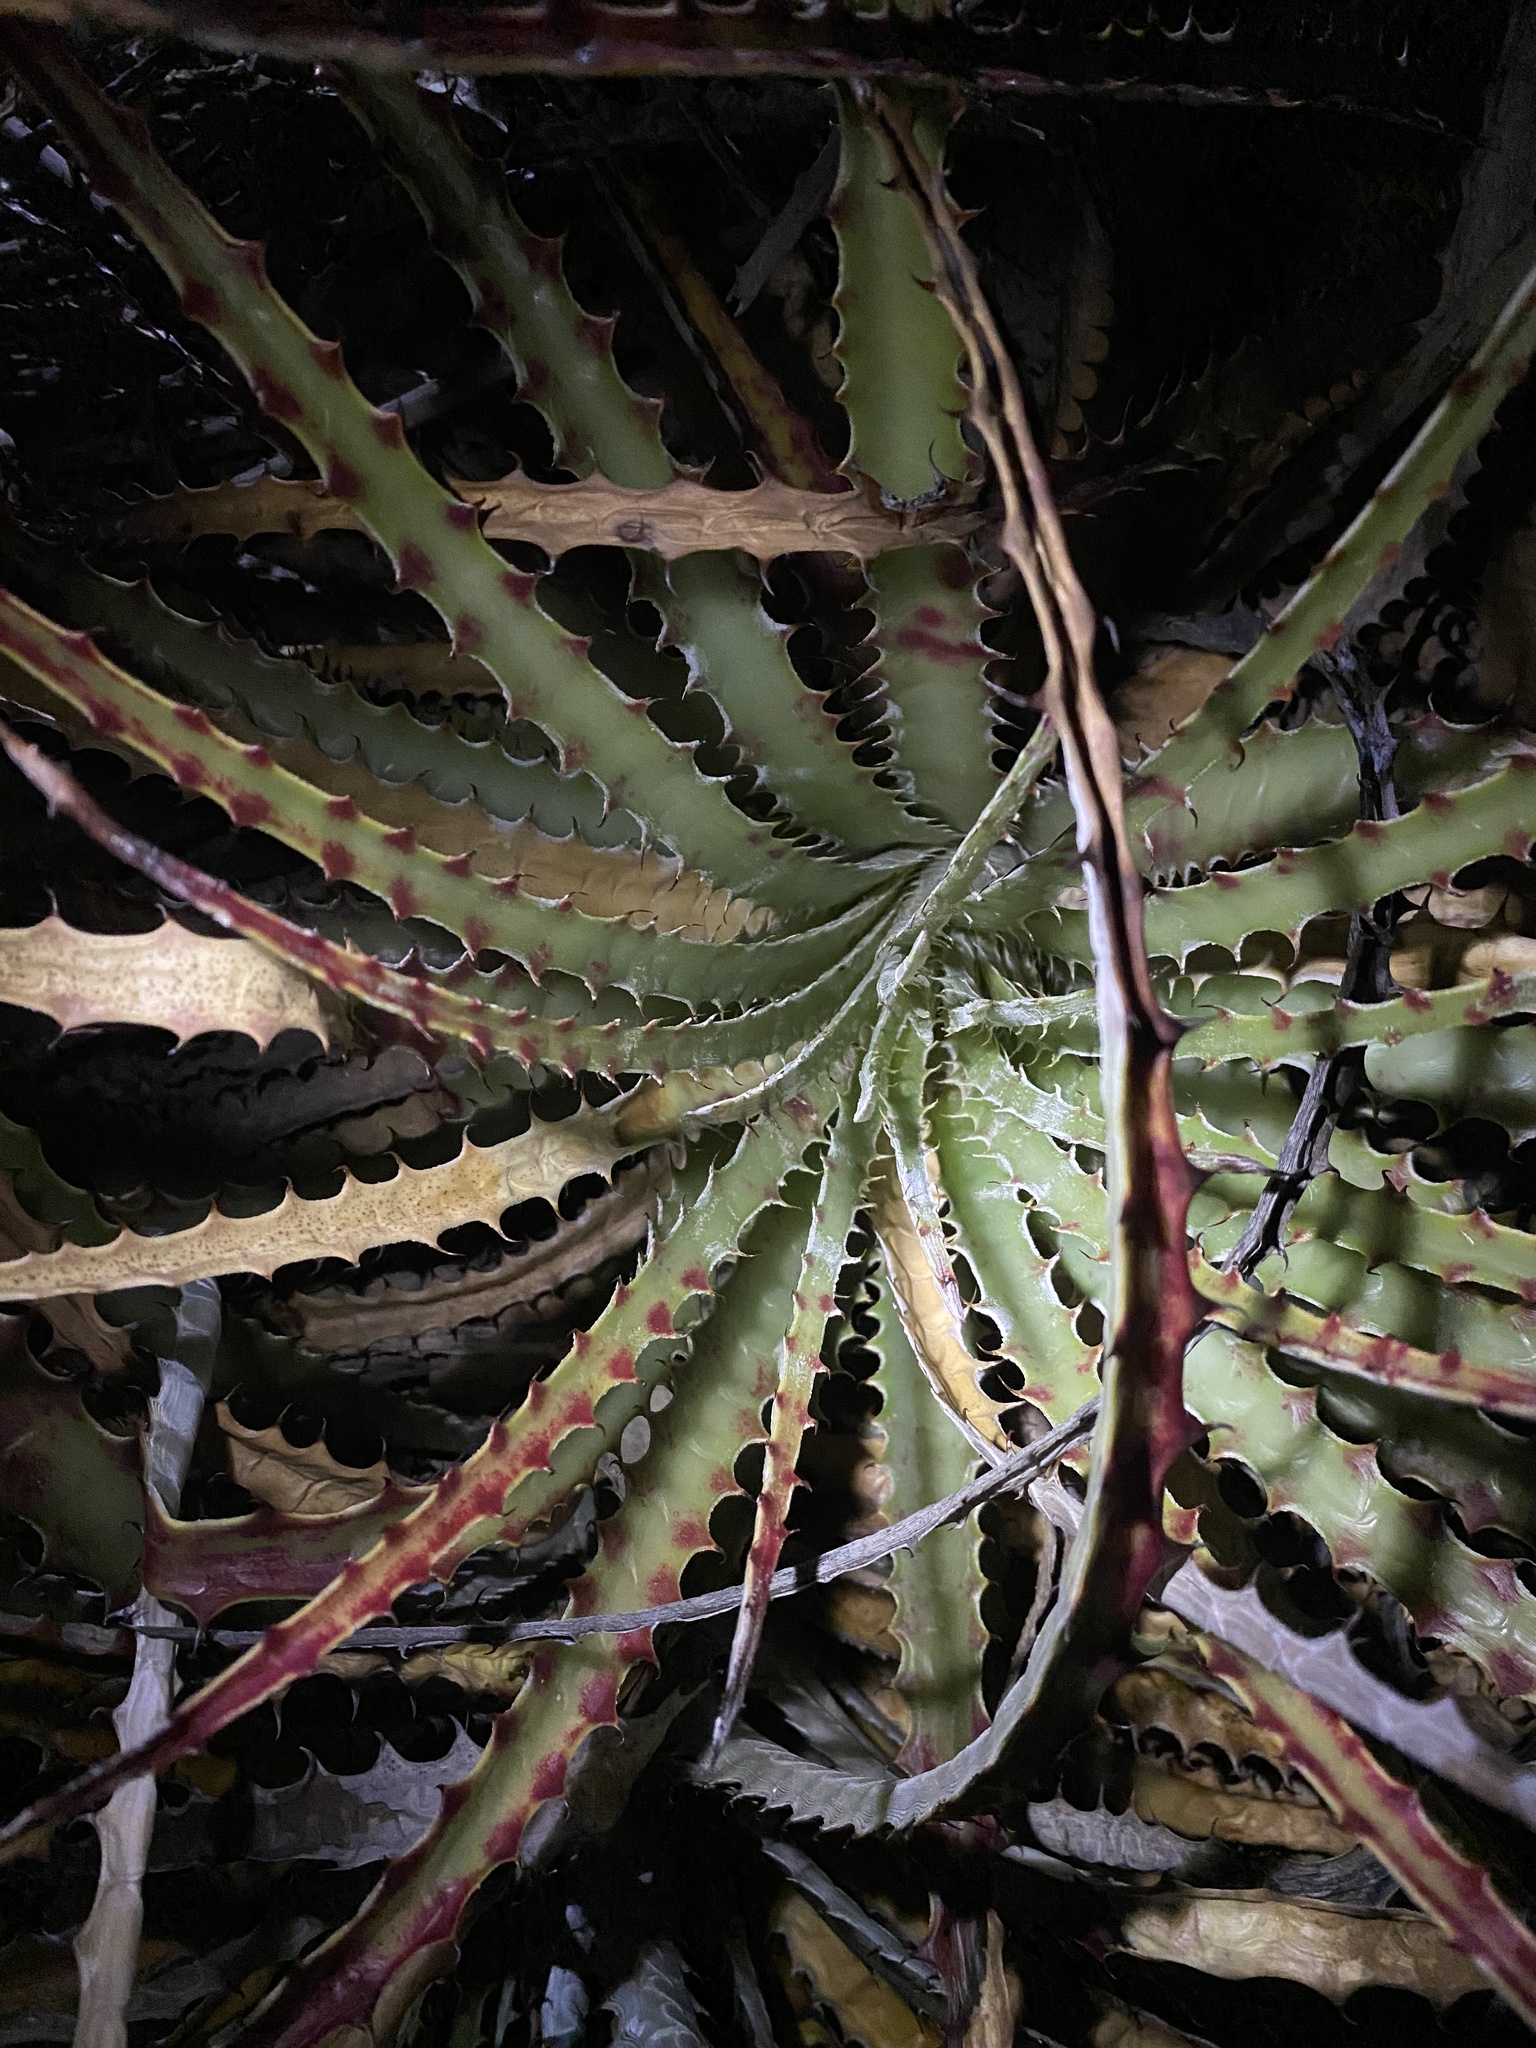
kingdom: Plantae
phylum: Tracheophyta
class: Liliopsida
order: Poales
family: Bromeliaceae
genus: Hechtia
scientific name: Hechtia glomerata
